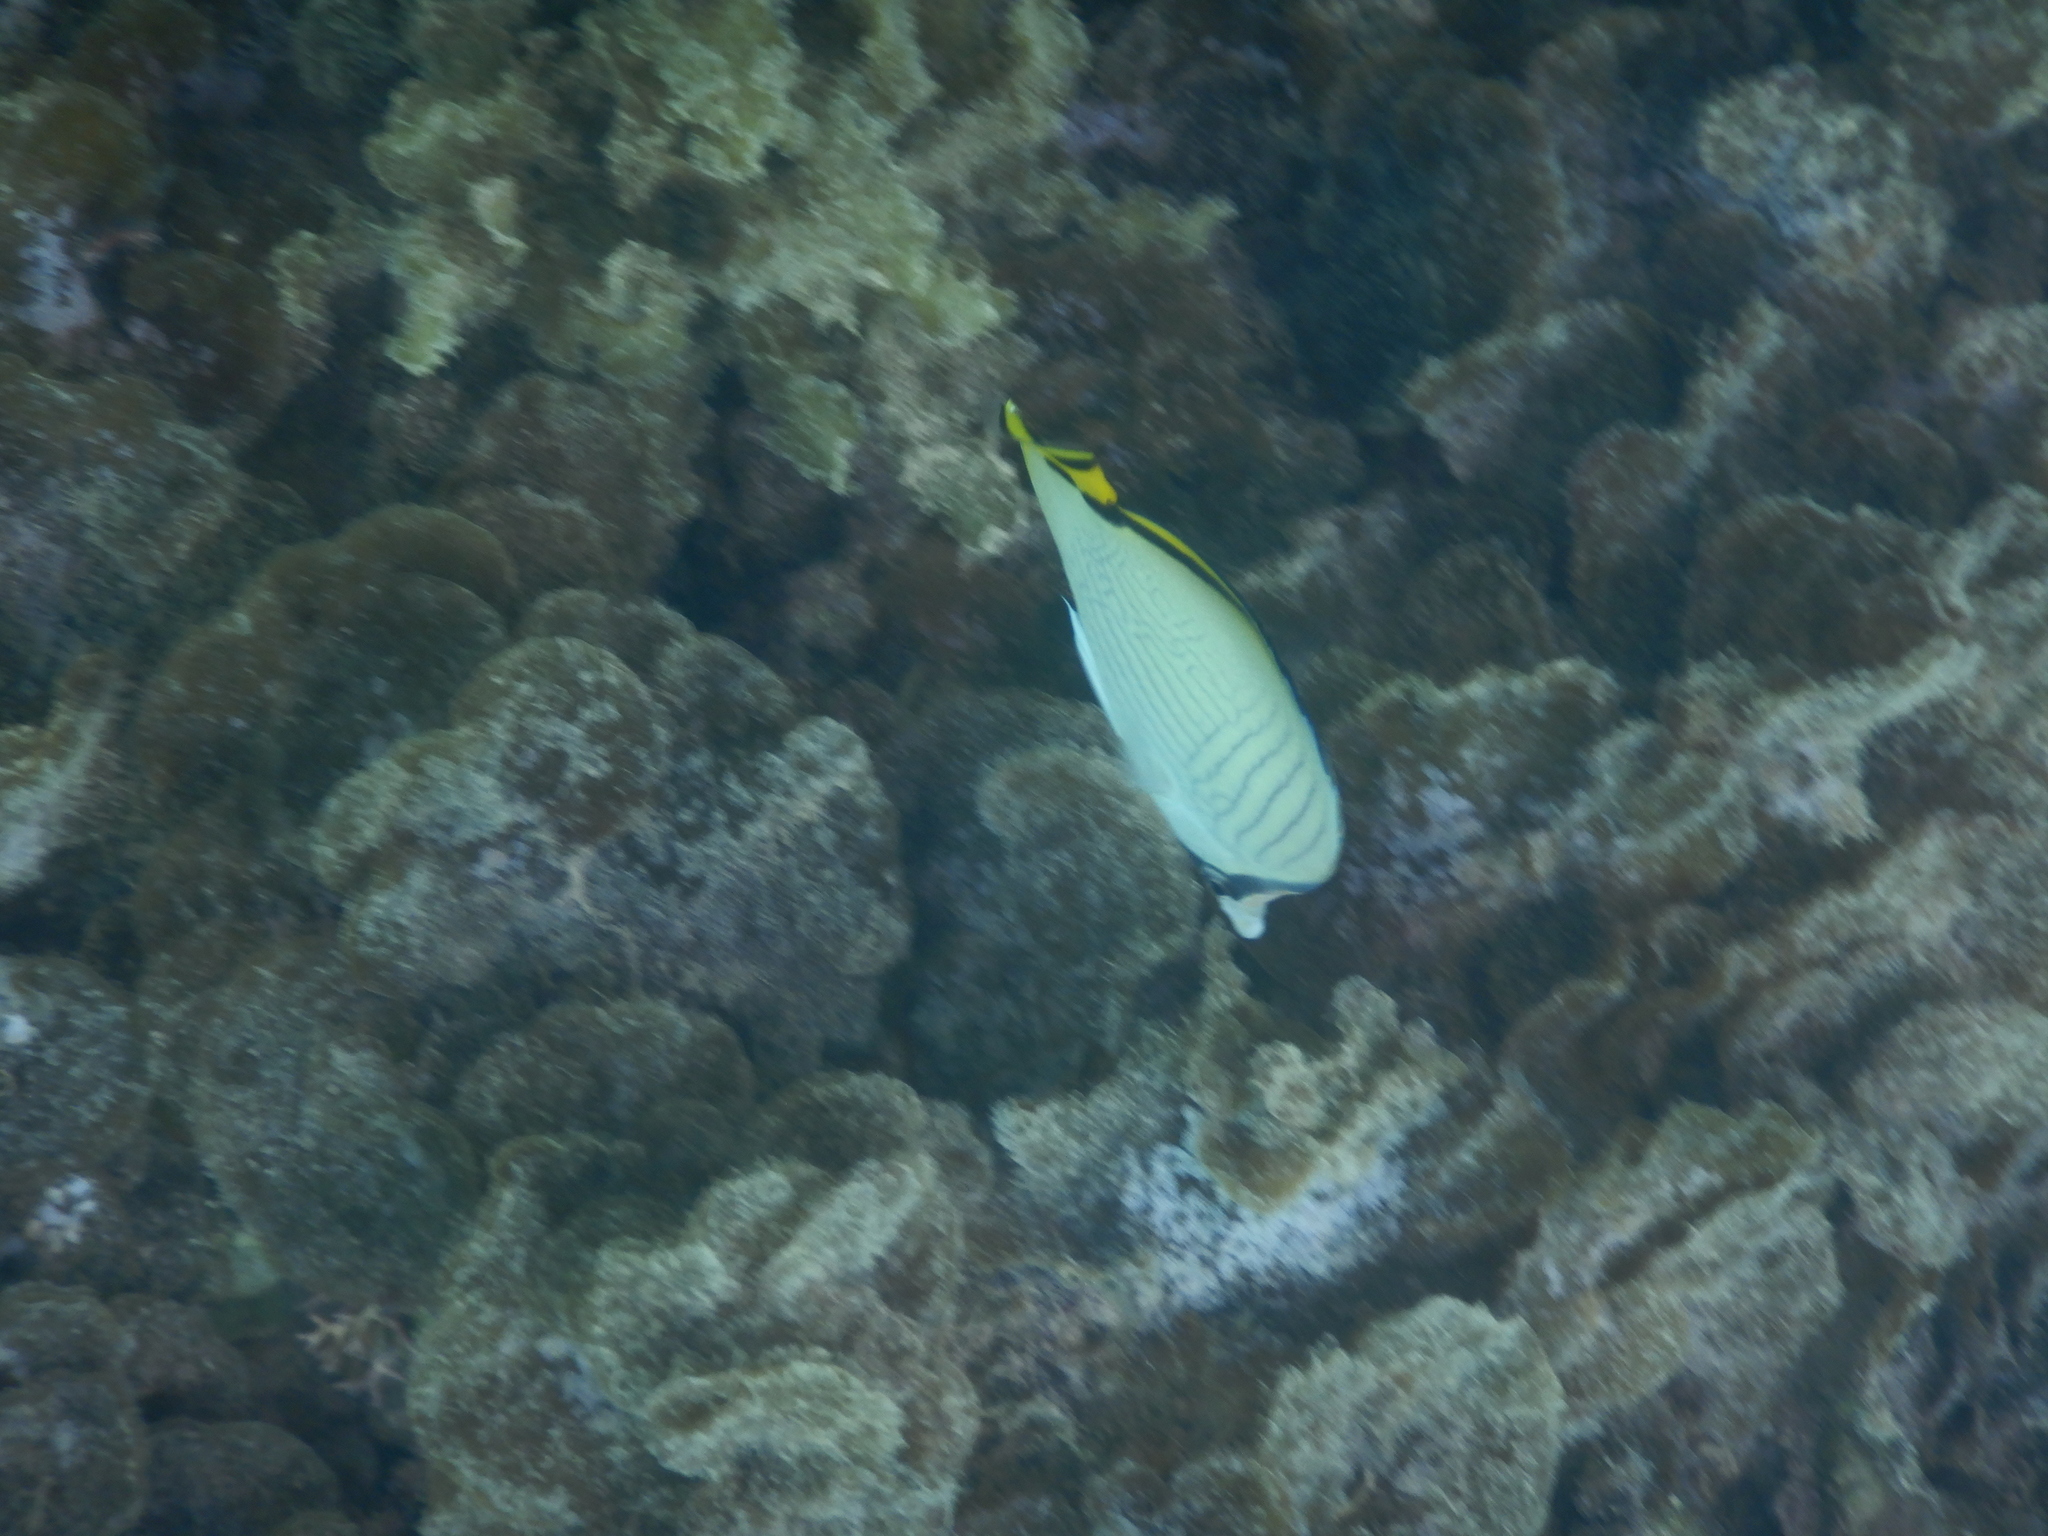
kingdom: Animalia
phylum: Chordata
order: Perciformes
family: Chaetodontidae
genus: Chaetodon
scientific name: Chaetodon vagabundus
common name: Vagabond butterflyfish
